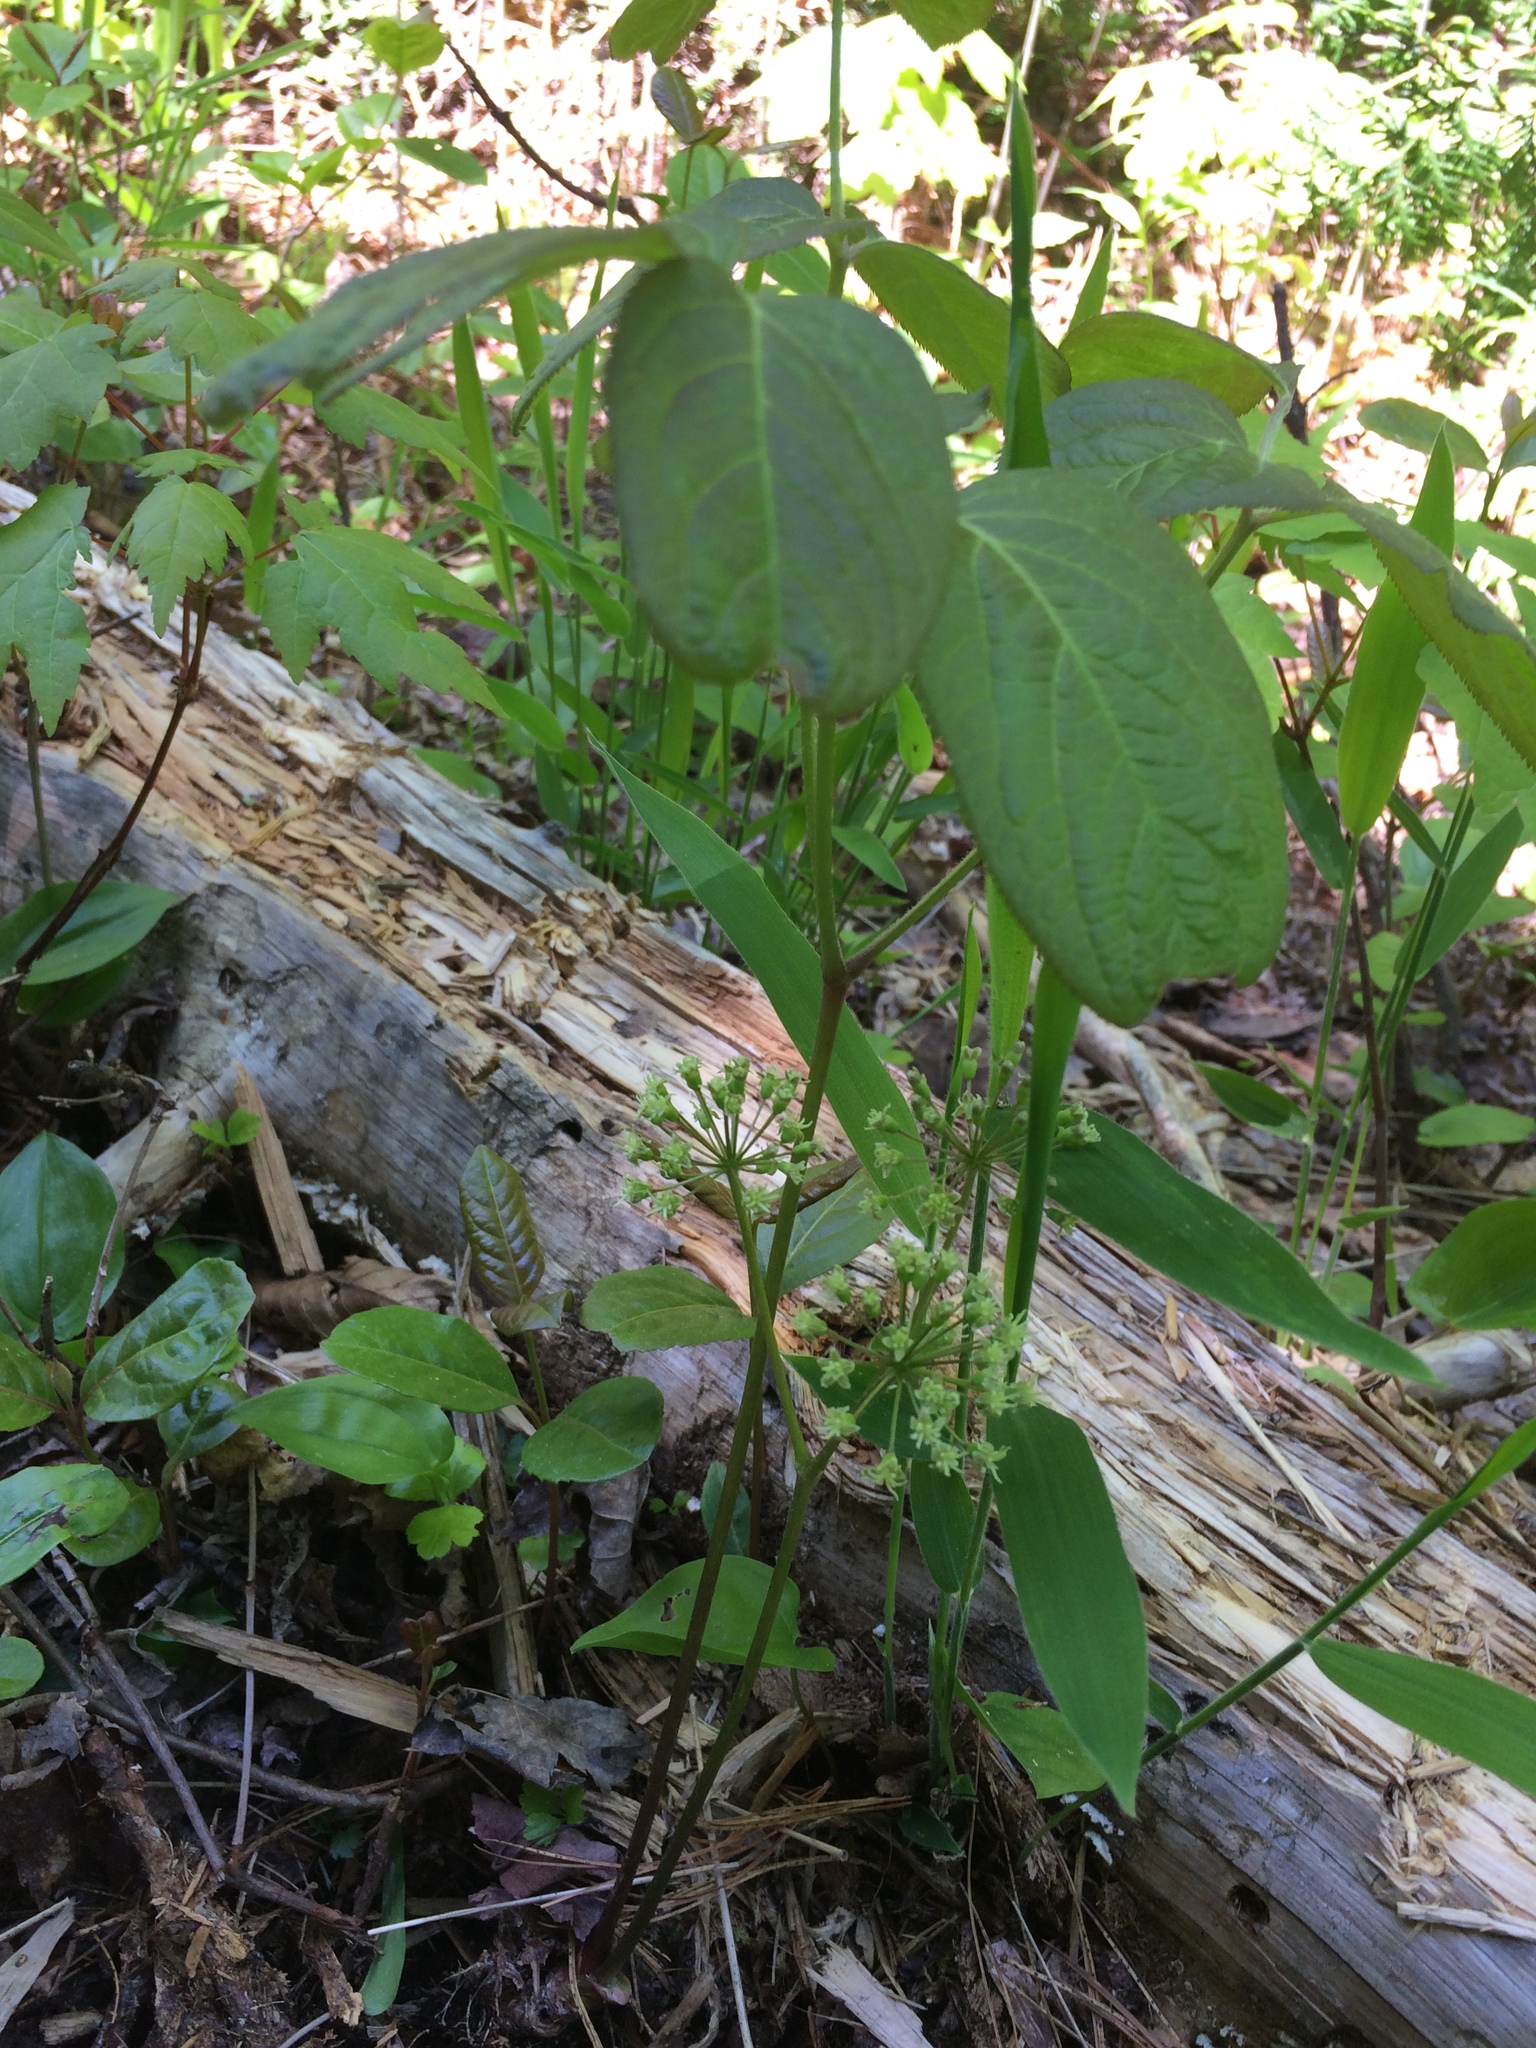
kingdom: Plantae
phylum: Tracheophyta
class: Magnoliopsida
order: Apiales
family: Araliaceae
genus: Aralia
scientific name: Aralia nudicaulis
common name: Wild sarsaparilla
